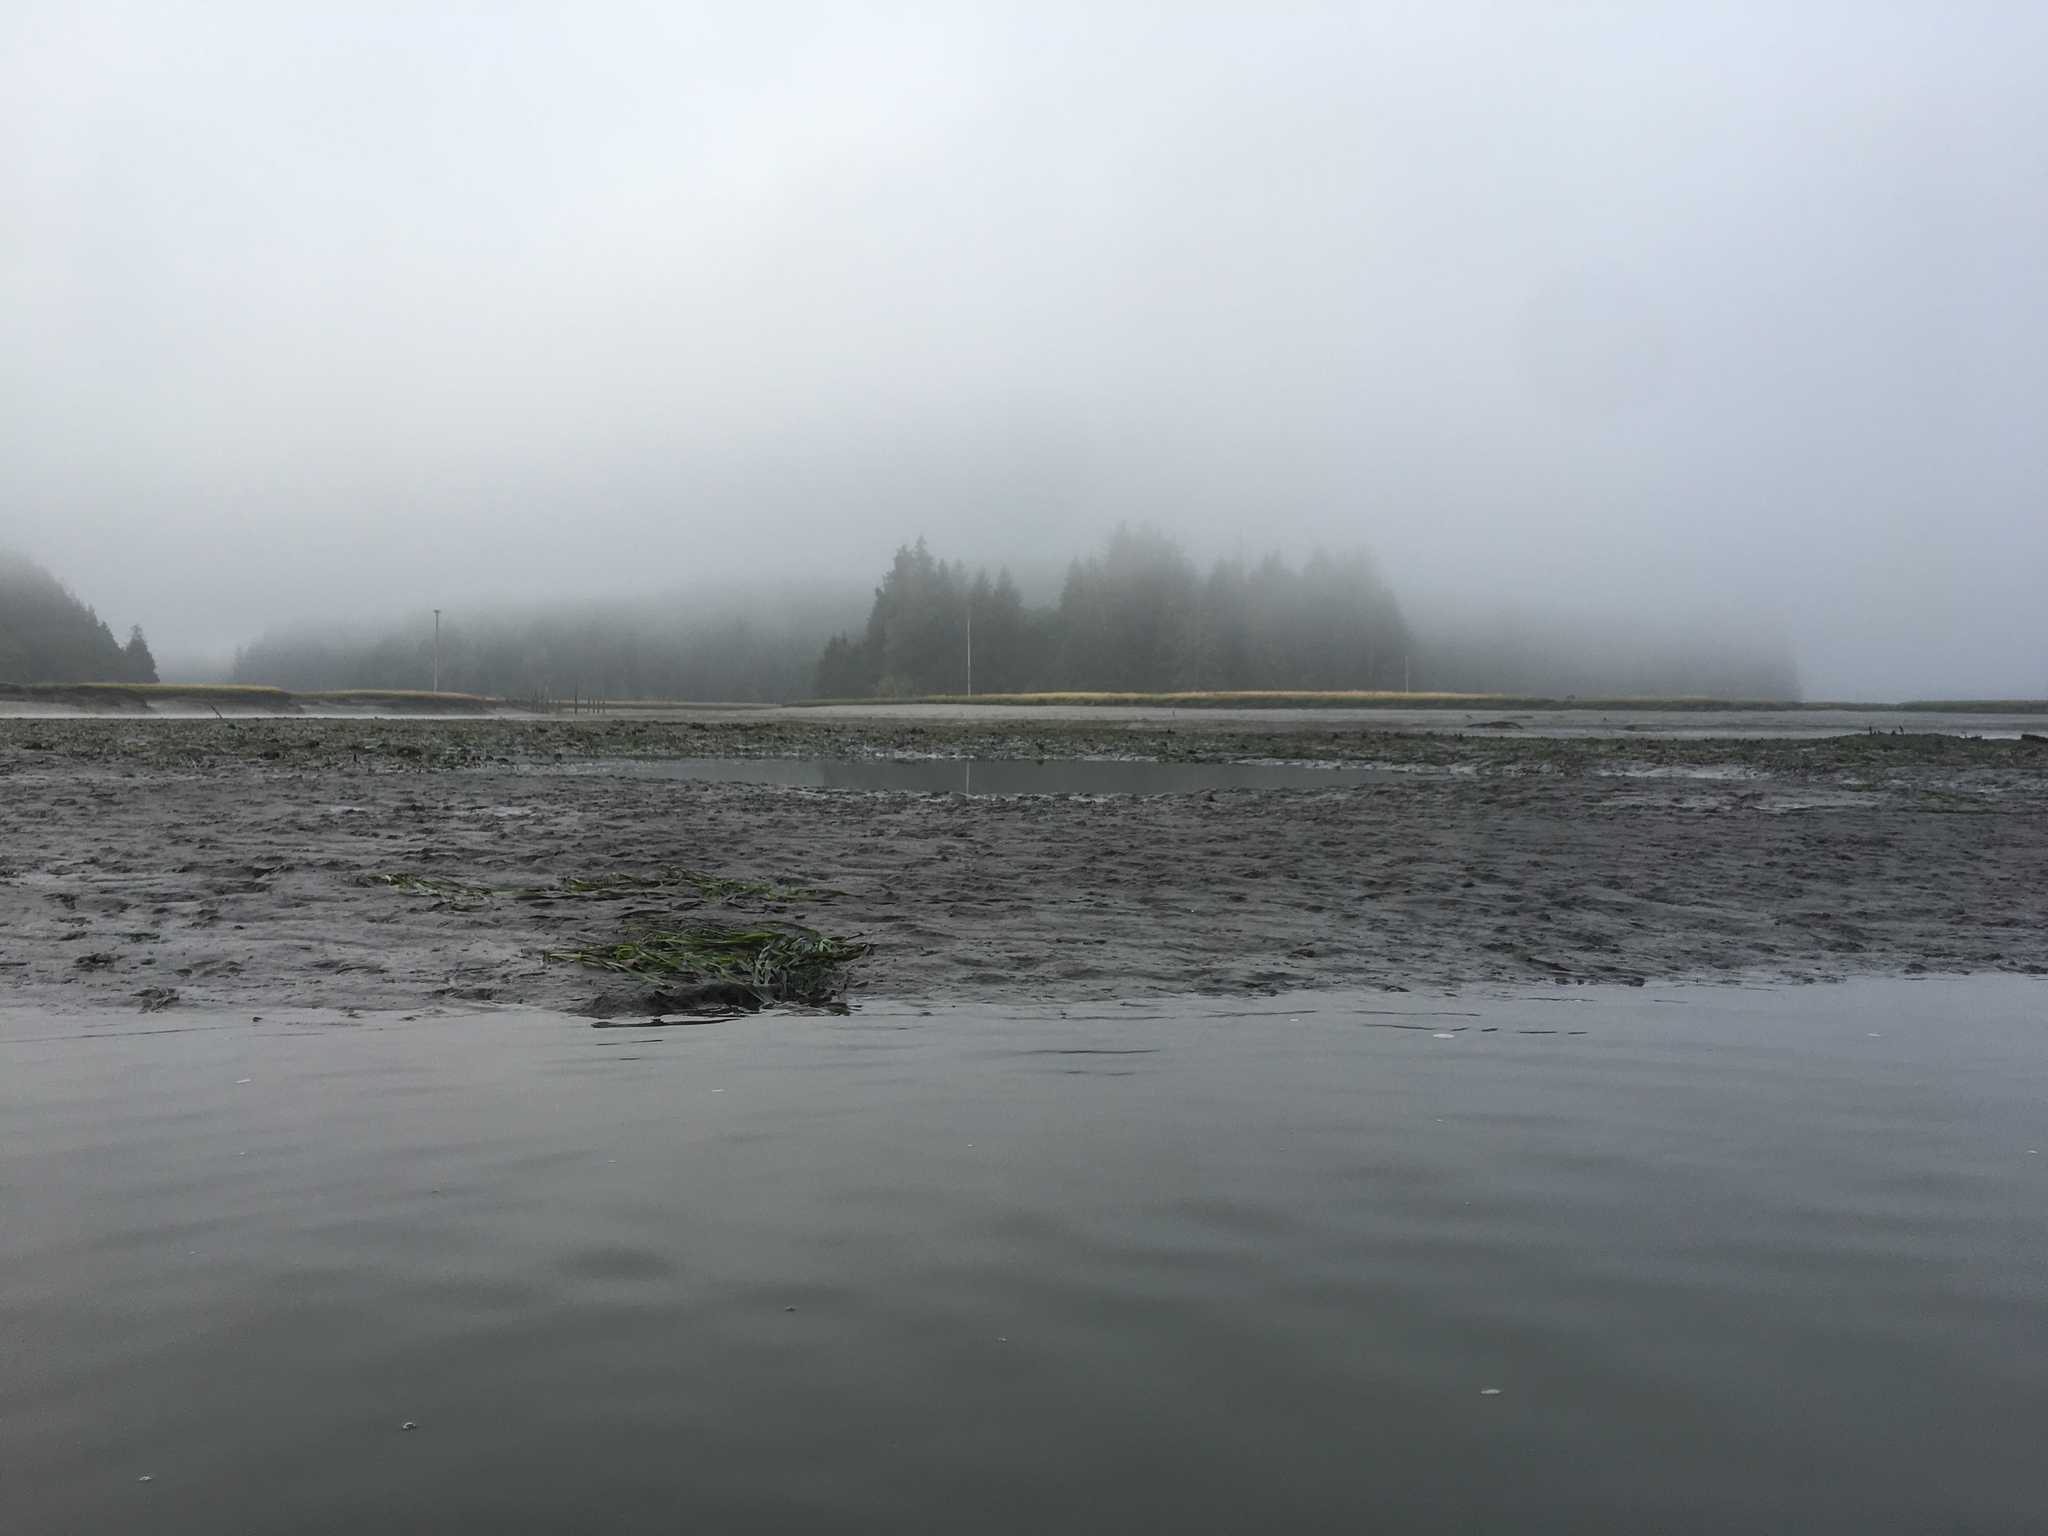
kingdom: Plantae
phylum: Tracheophyta
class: Liliopsida
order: Alismatales
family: Zosteraceae
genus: Zostera
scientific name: Zostera marina
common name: Eelgrass
